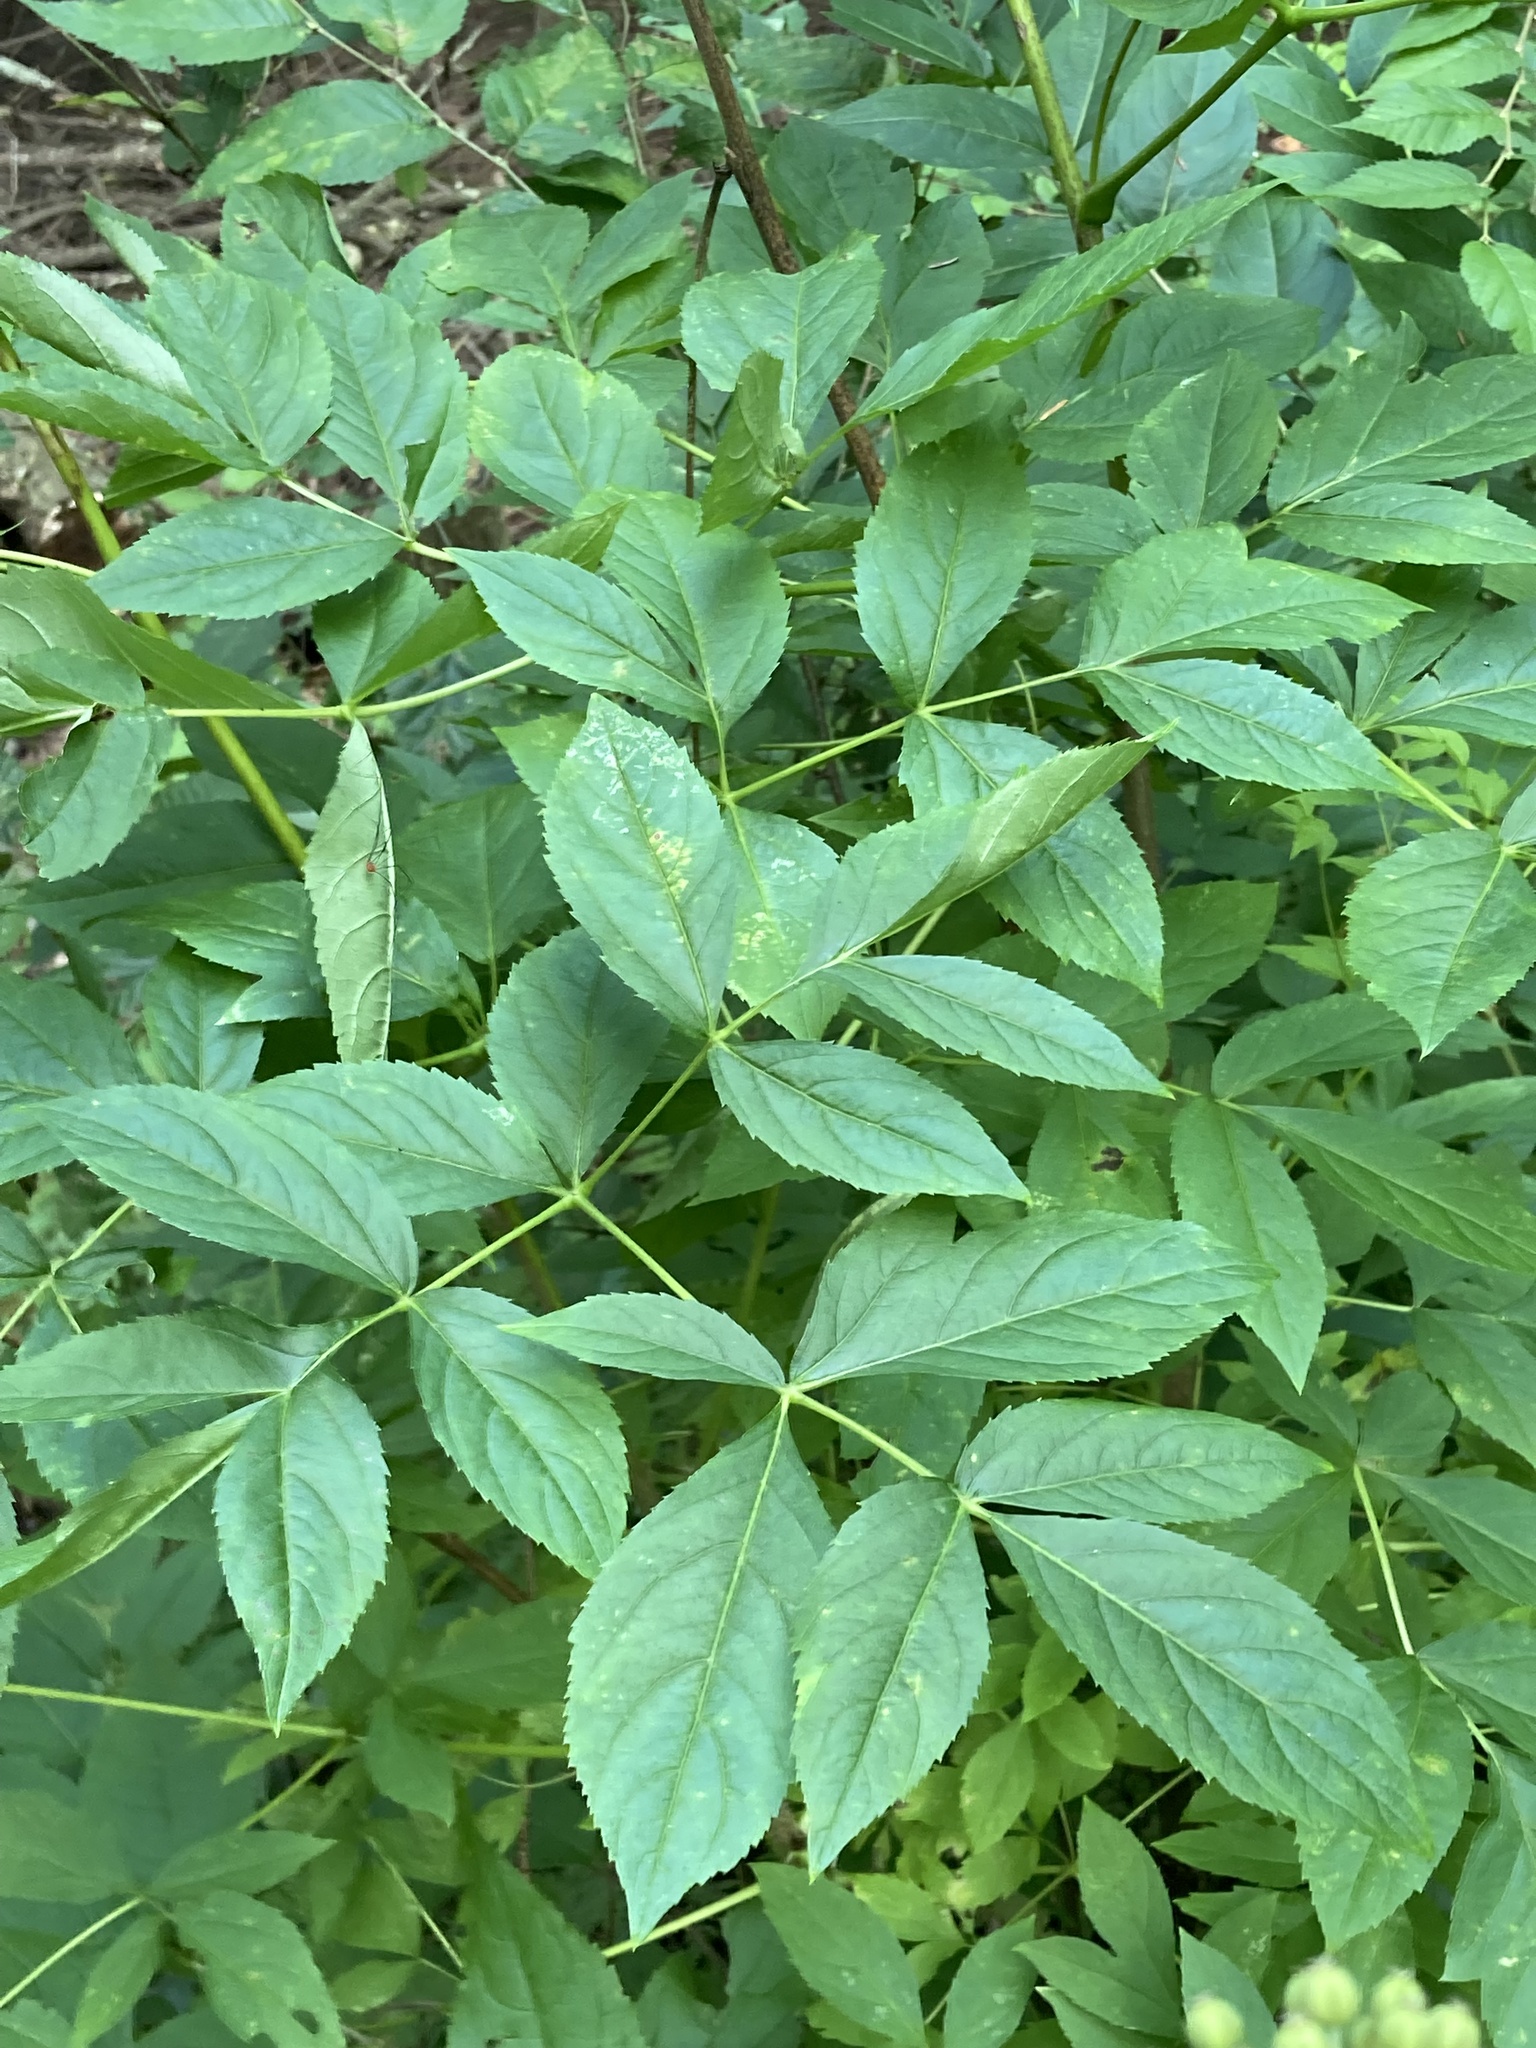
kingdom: Plantae
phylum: Tracheophyta
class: Magnoliopsida
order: Apiales
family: Araliaceae
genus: Aralia
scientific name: Aralia hispida
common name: Bristly sarsaparilla
